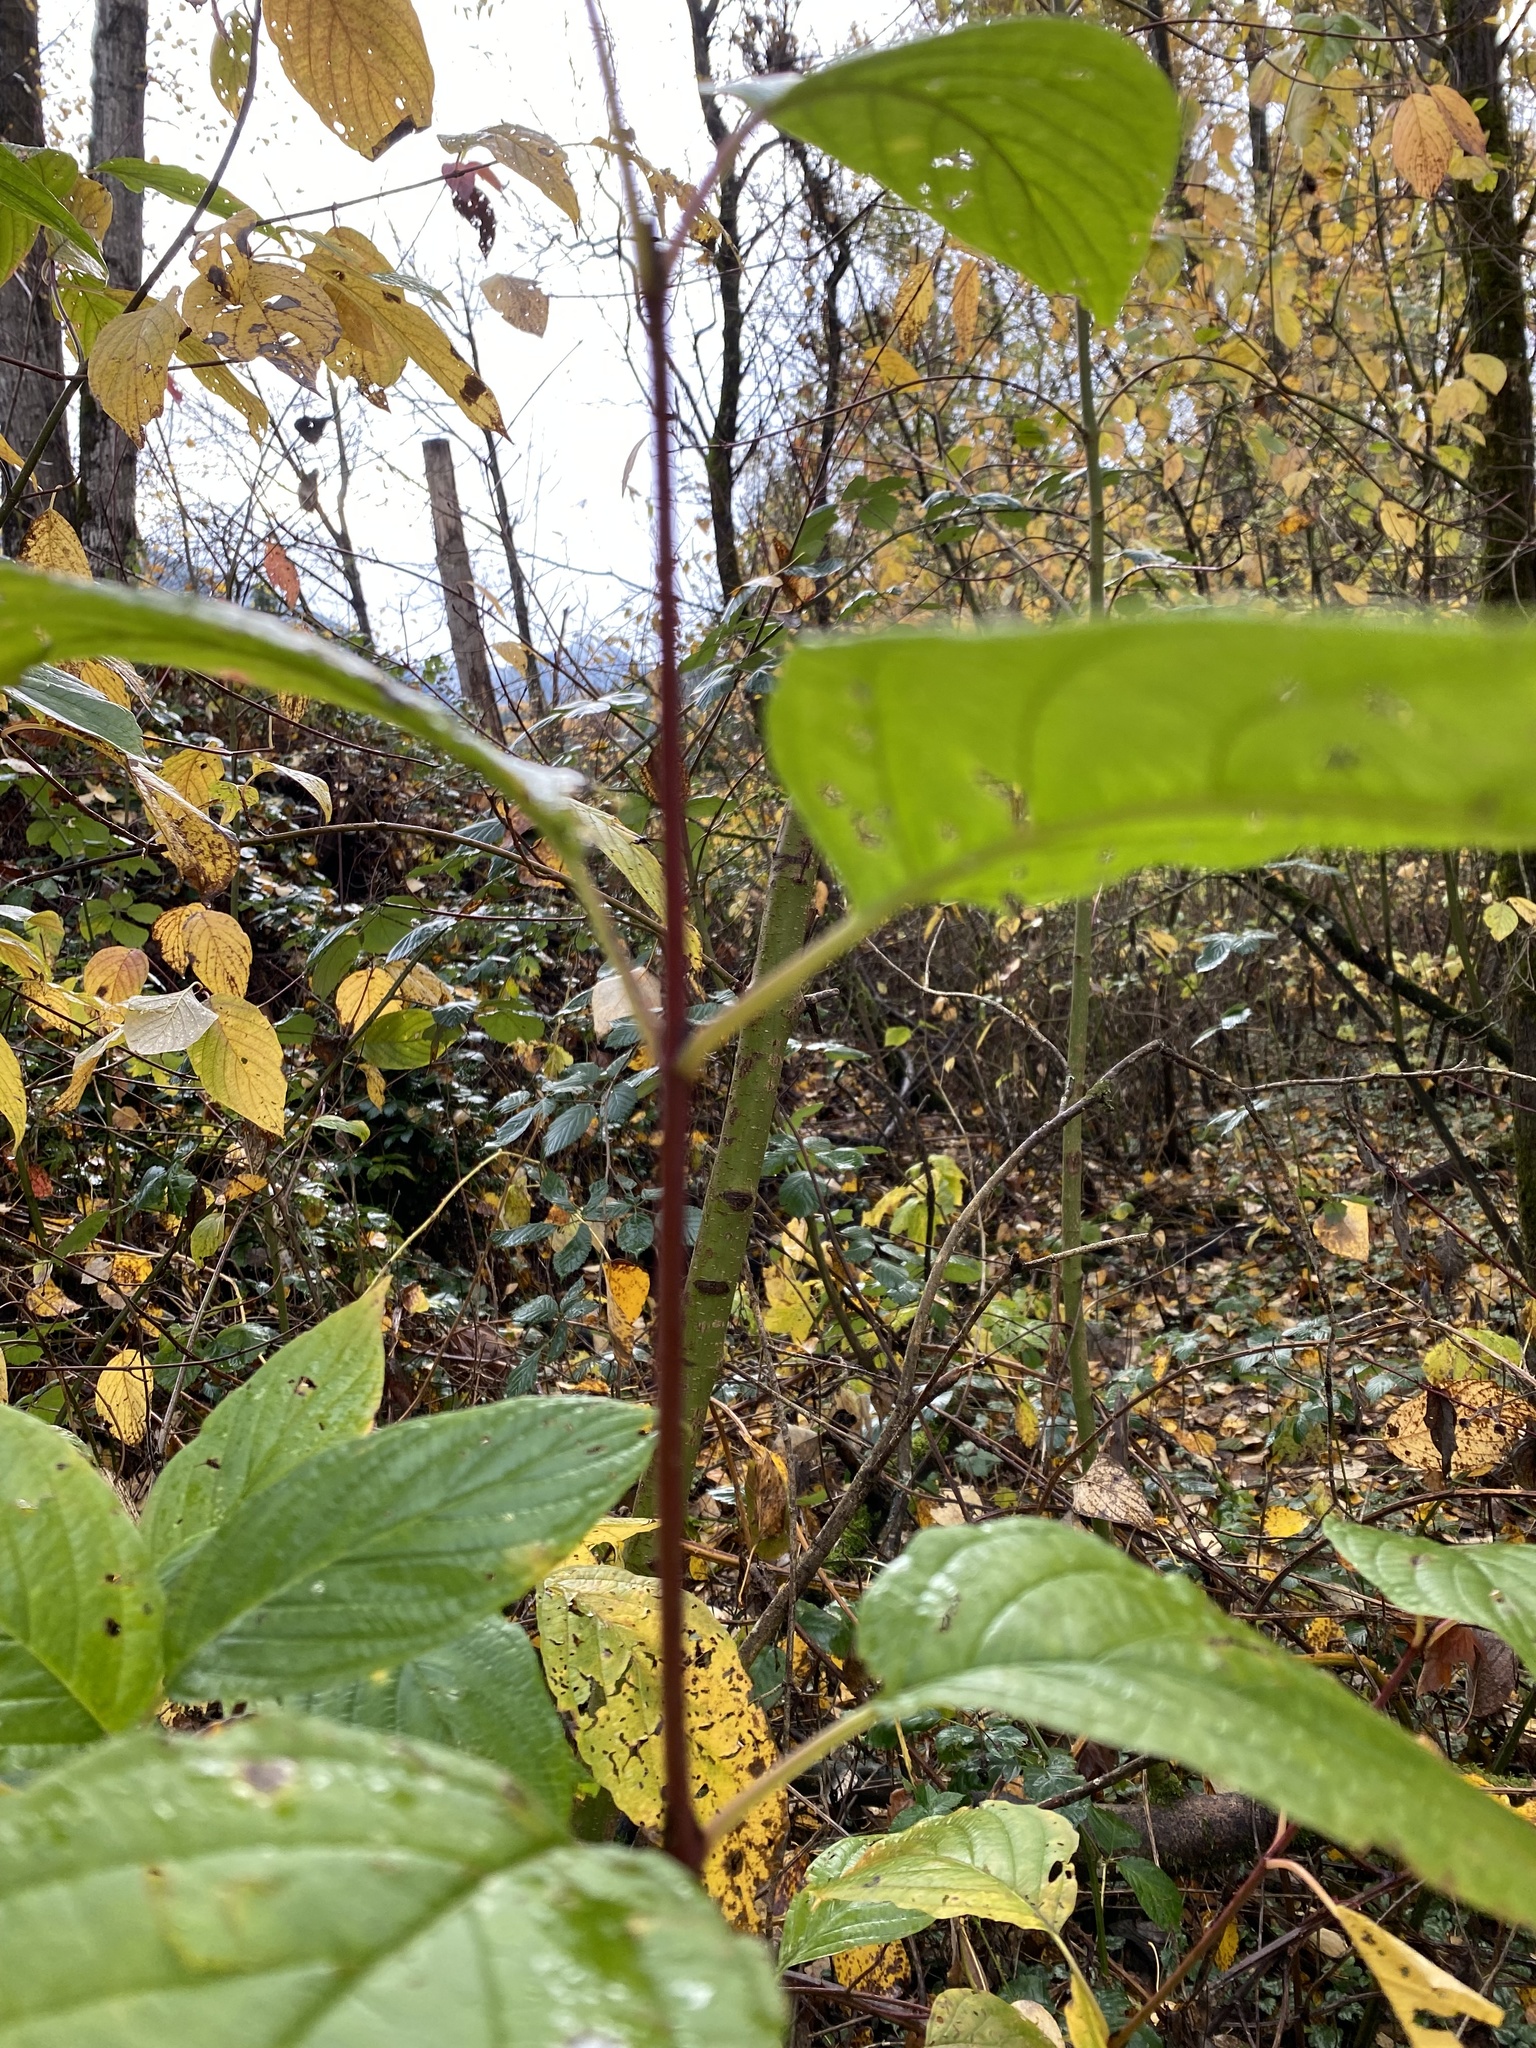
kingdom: Plantae
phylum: Tracheophyta
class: Magnoliopsida
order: Cornales
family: Cornaceae
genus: Cornus
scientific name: Cornus sericea
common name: Red-osier dogwood
